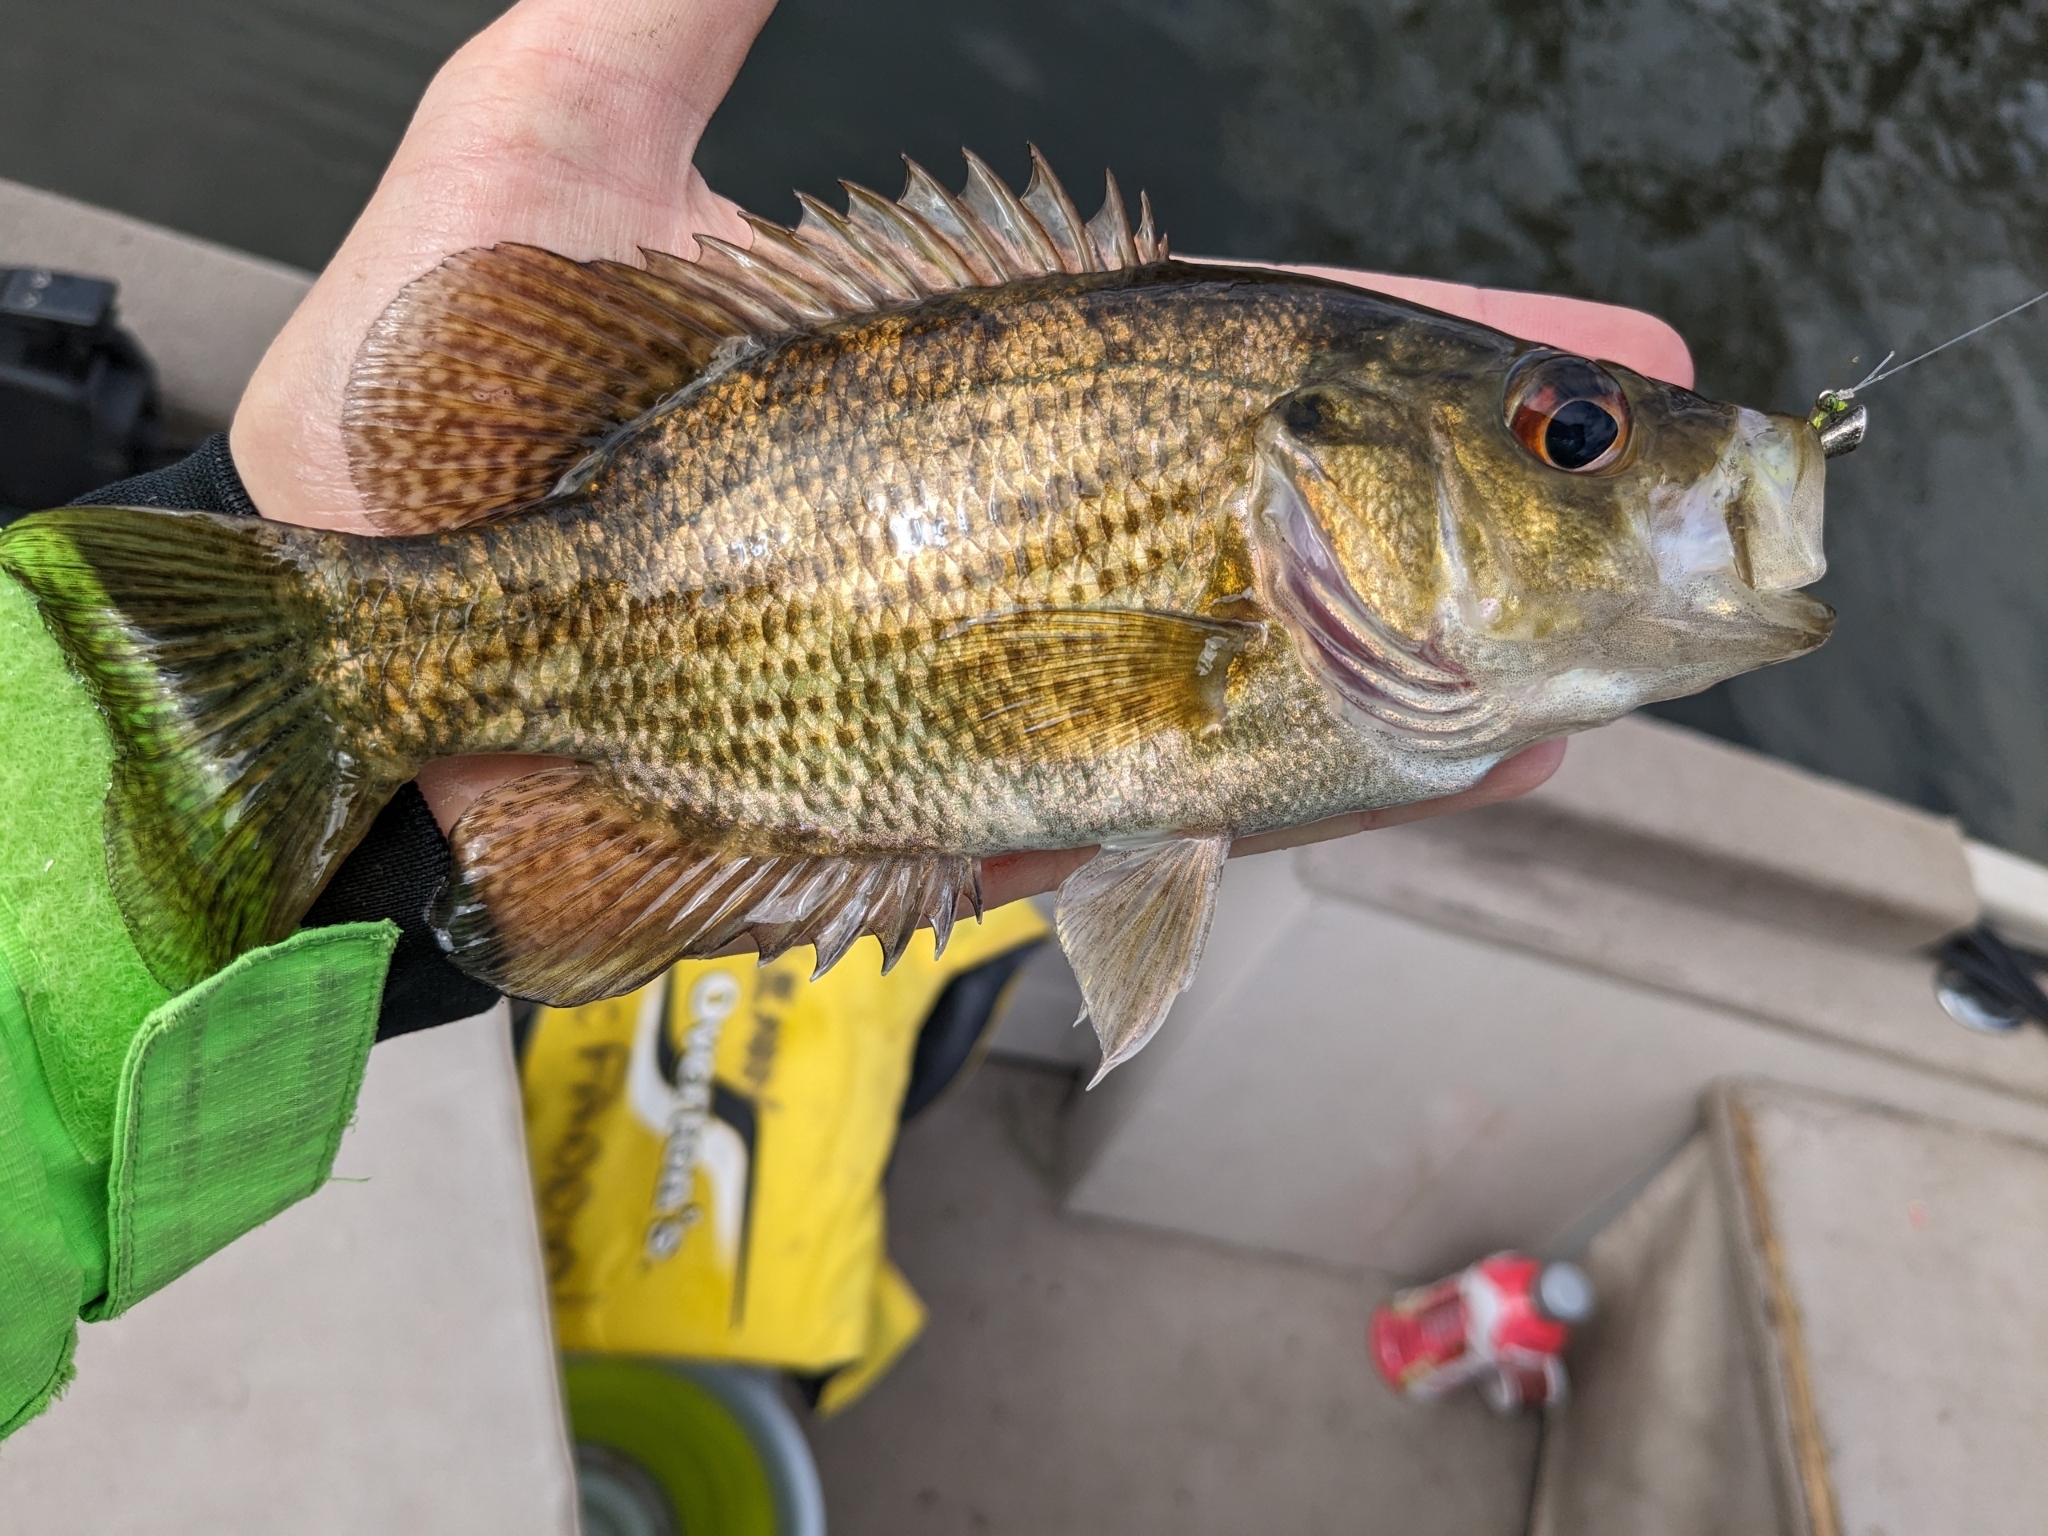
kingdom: Animalia
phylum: Chordata
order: Perciformes
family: Centrarchidae
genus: Ambloplites
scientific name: Ambloplites rupestris
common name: Rock bass
